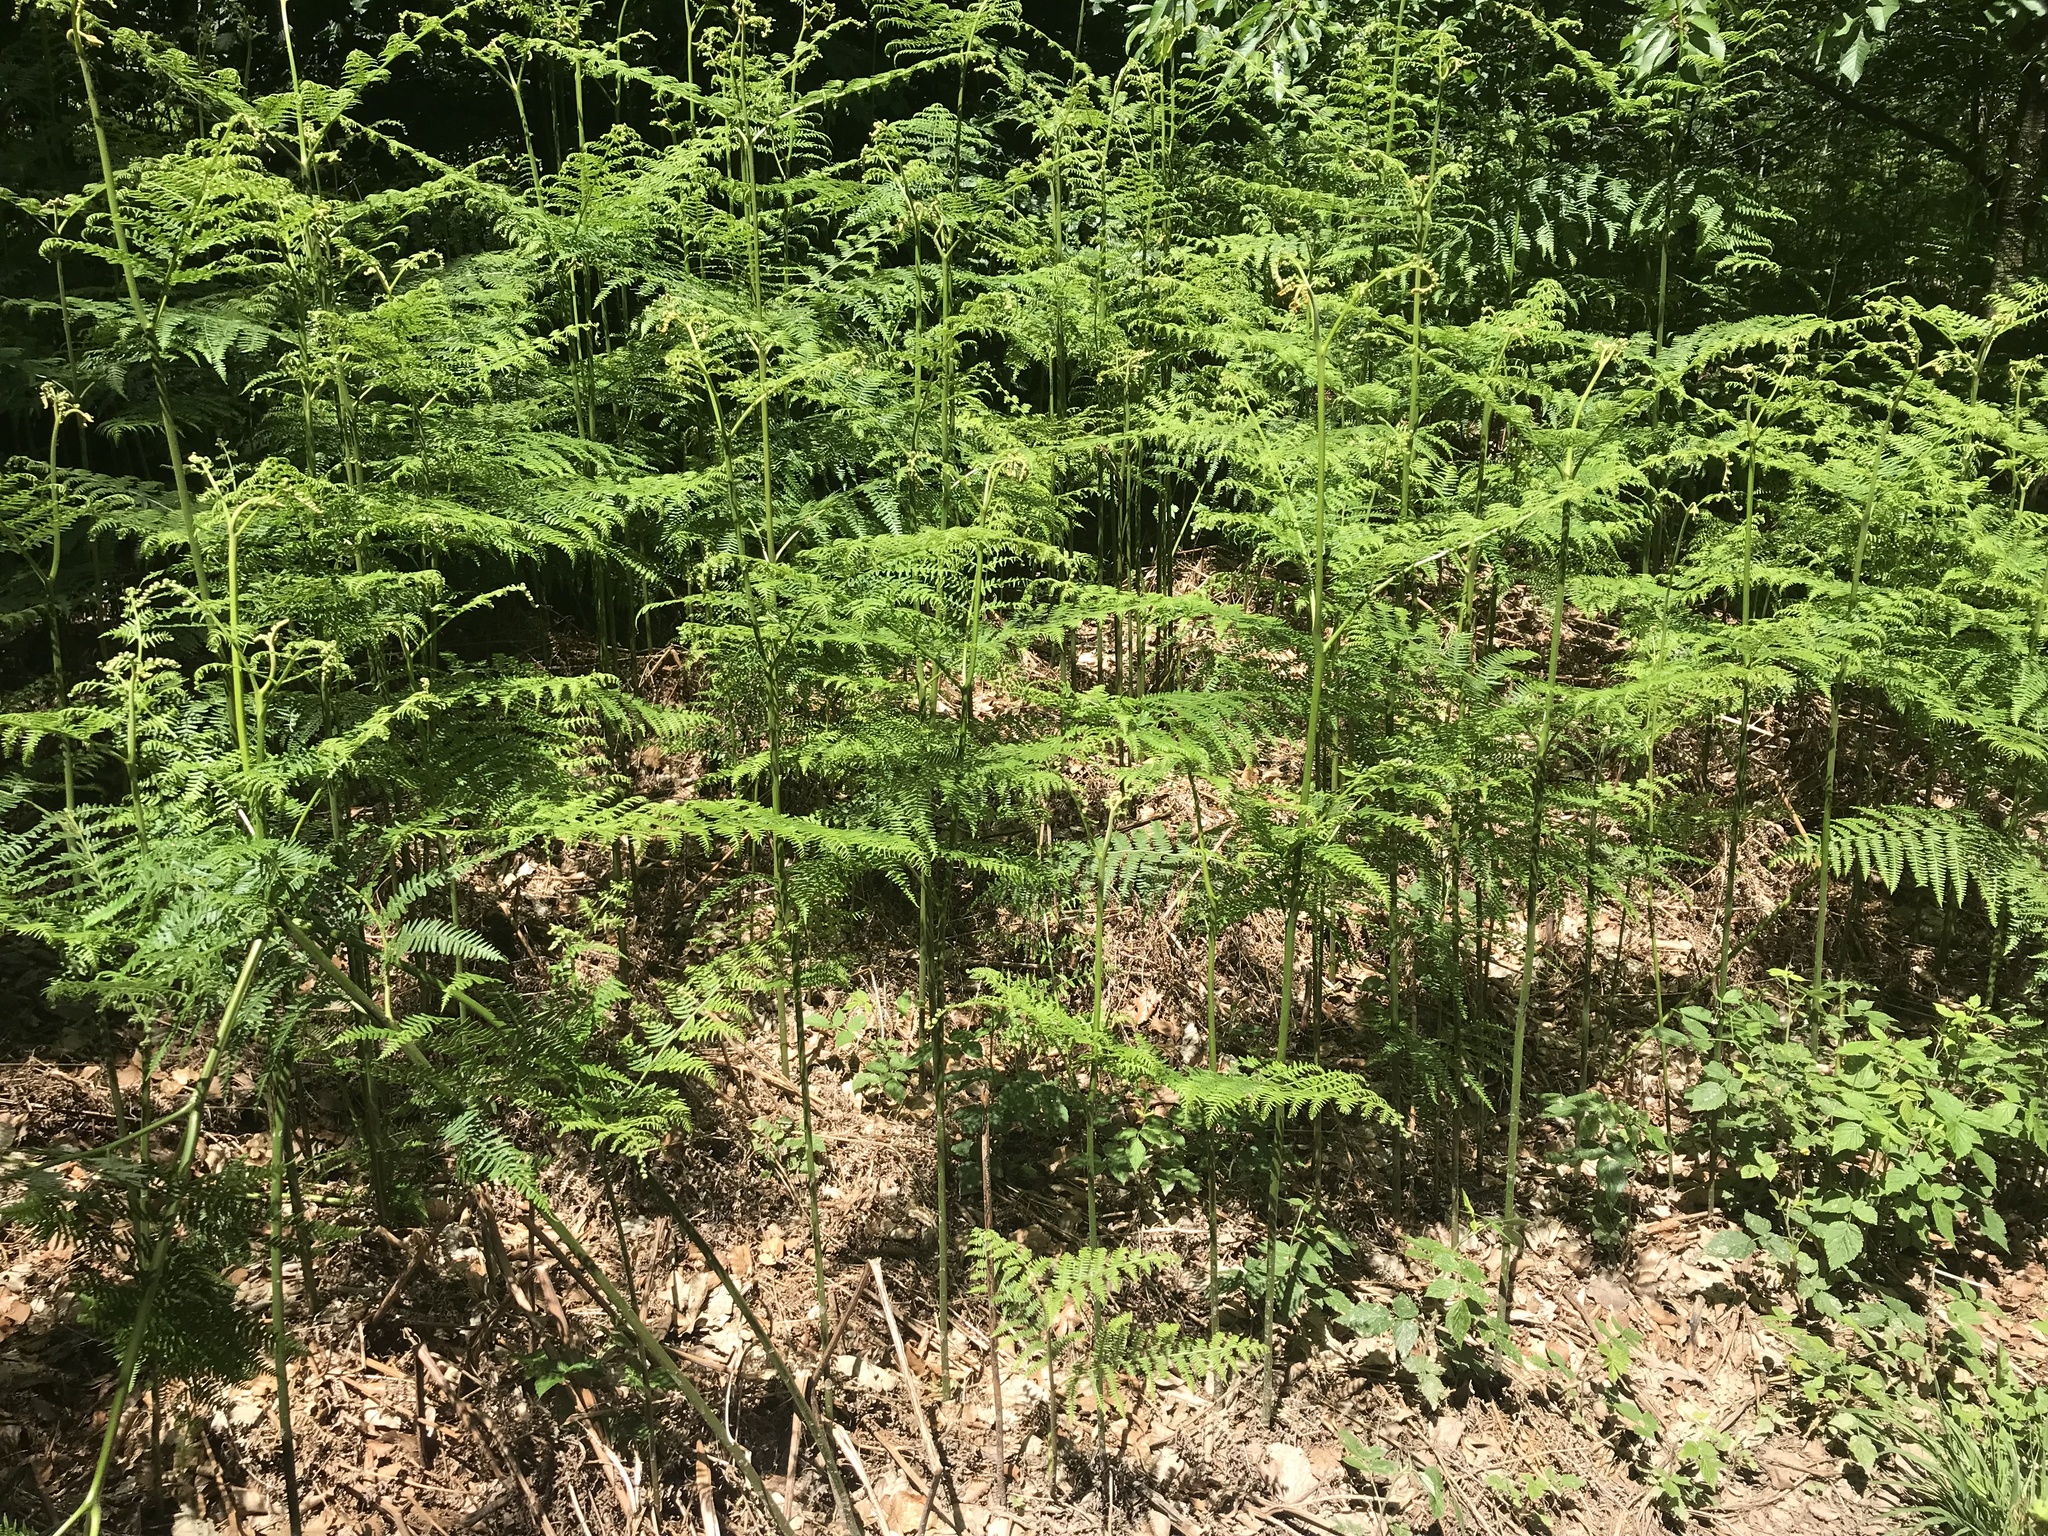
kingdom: Plantae
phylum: Tracheophyta
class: Polypodiopsida
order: Polypodiales
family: Dennstaedtiaceae
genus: Pteridium
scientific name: Pteridium aquilinum
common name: Bracken
